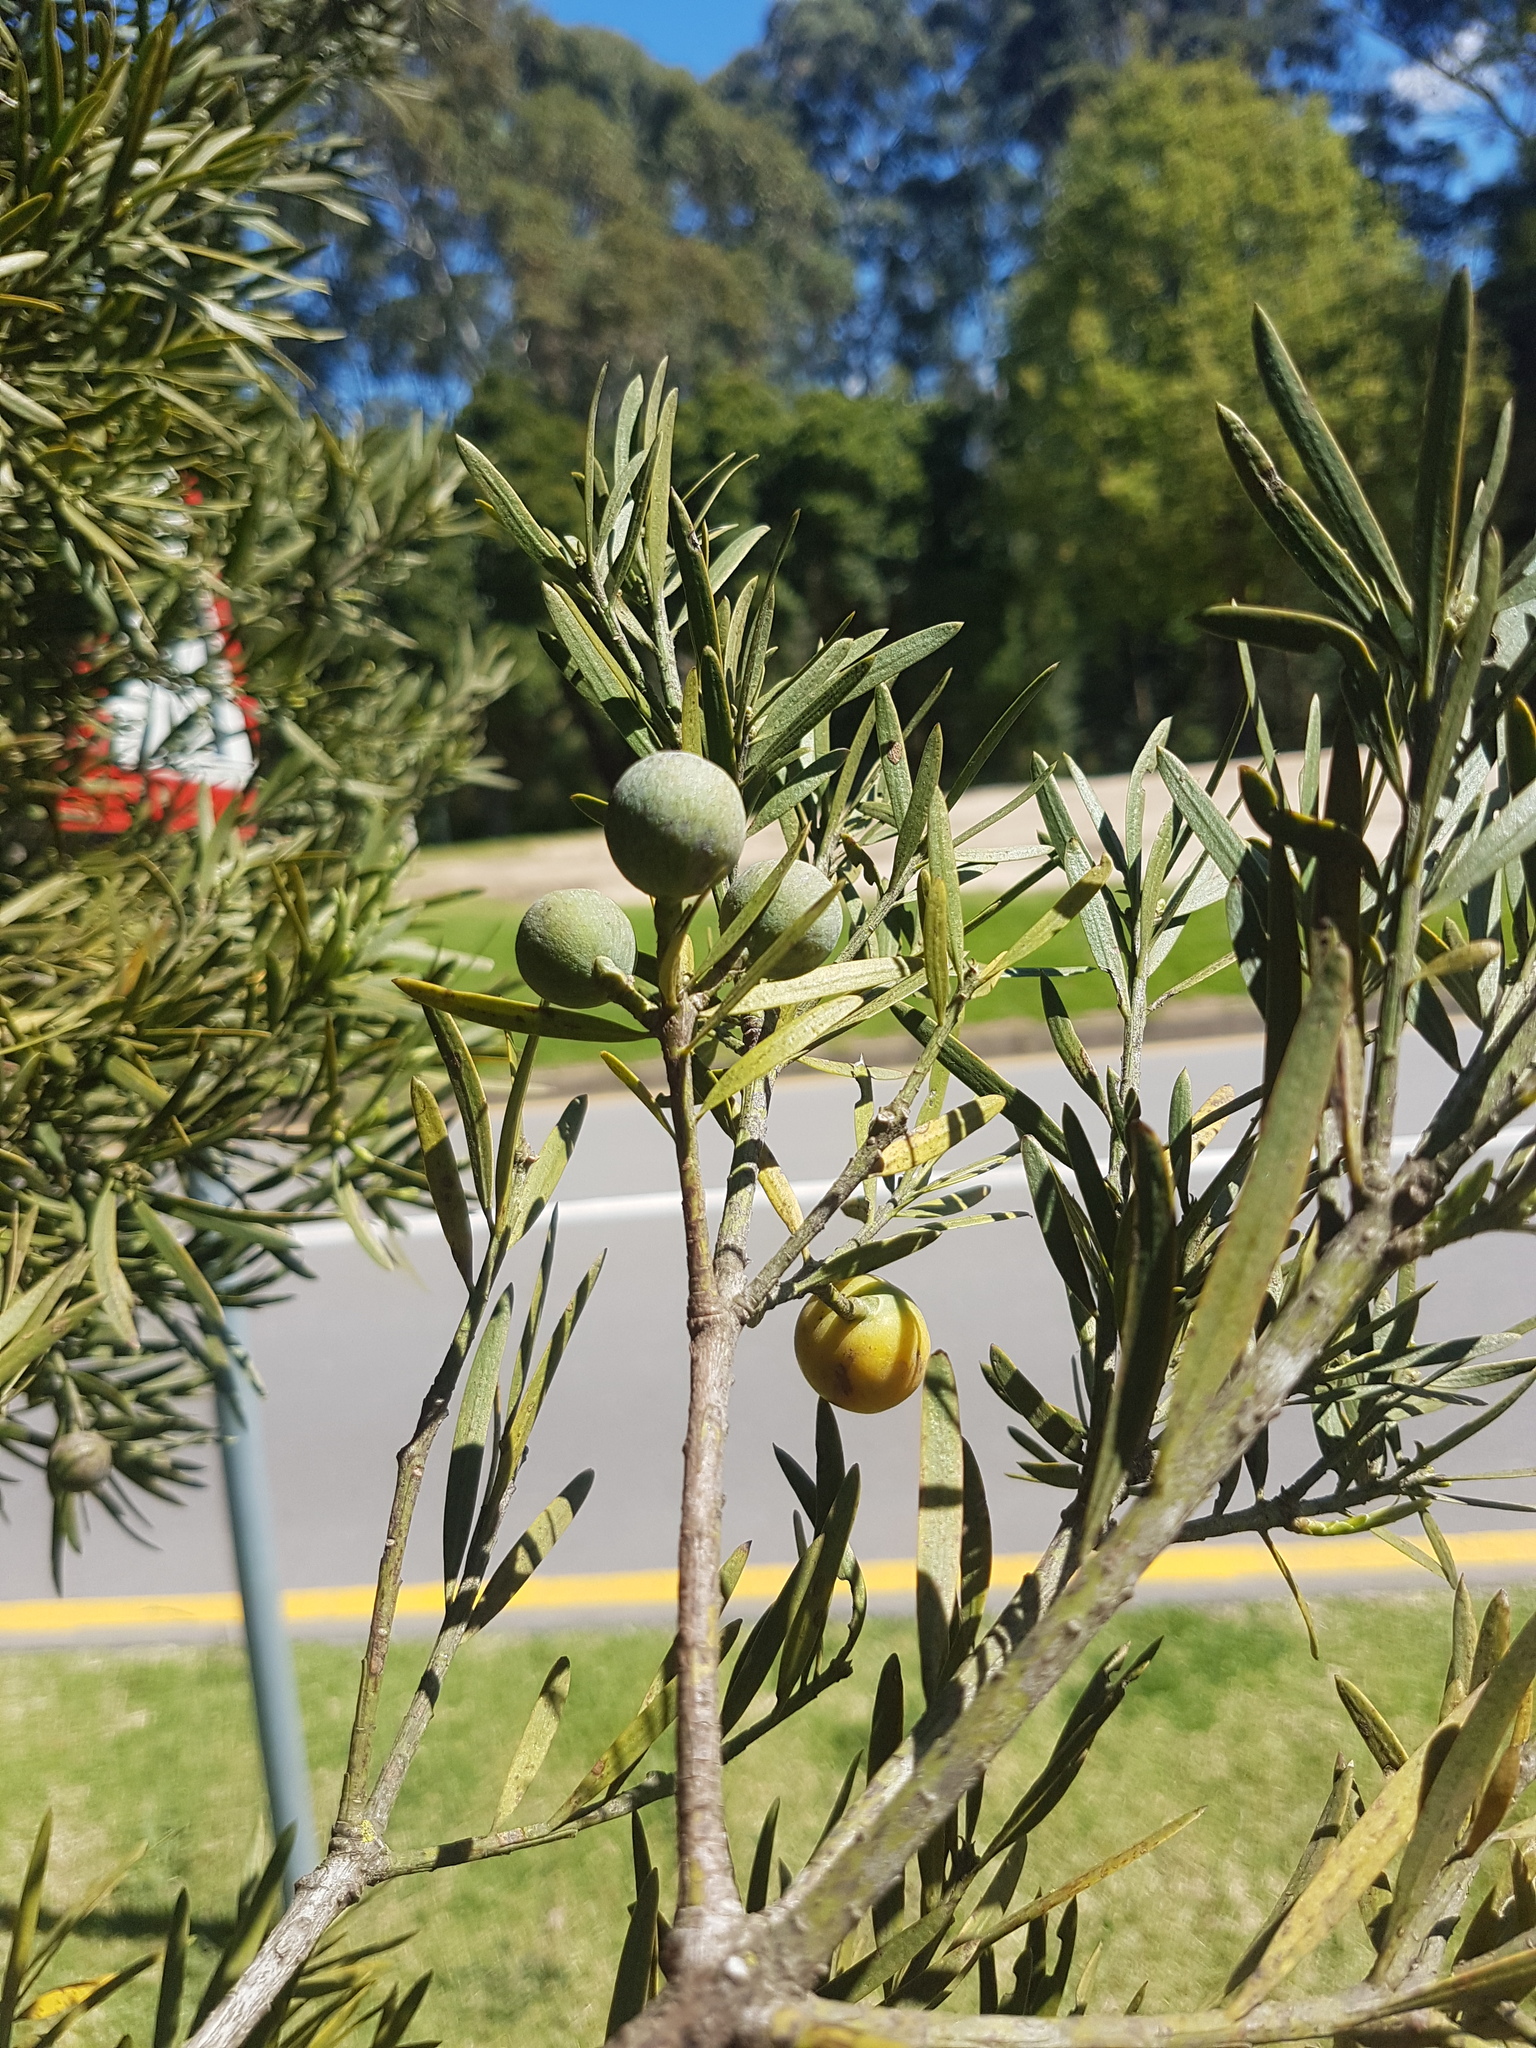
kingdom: Plantae
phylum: Tracheophyta
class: Pinopsida
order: Pinales
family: Podocarpaceae
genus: Afrocarpus
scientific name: Afrocarpus falcatus
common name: Bastard yellowwood
